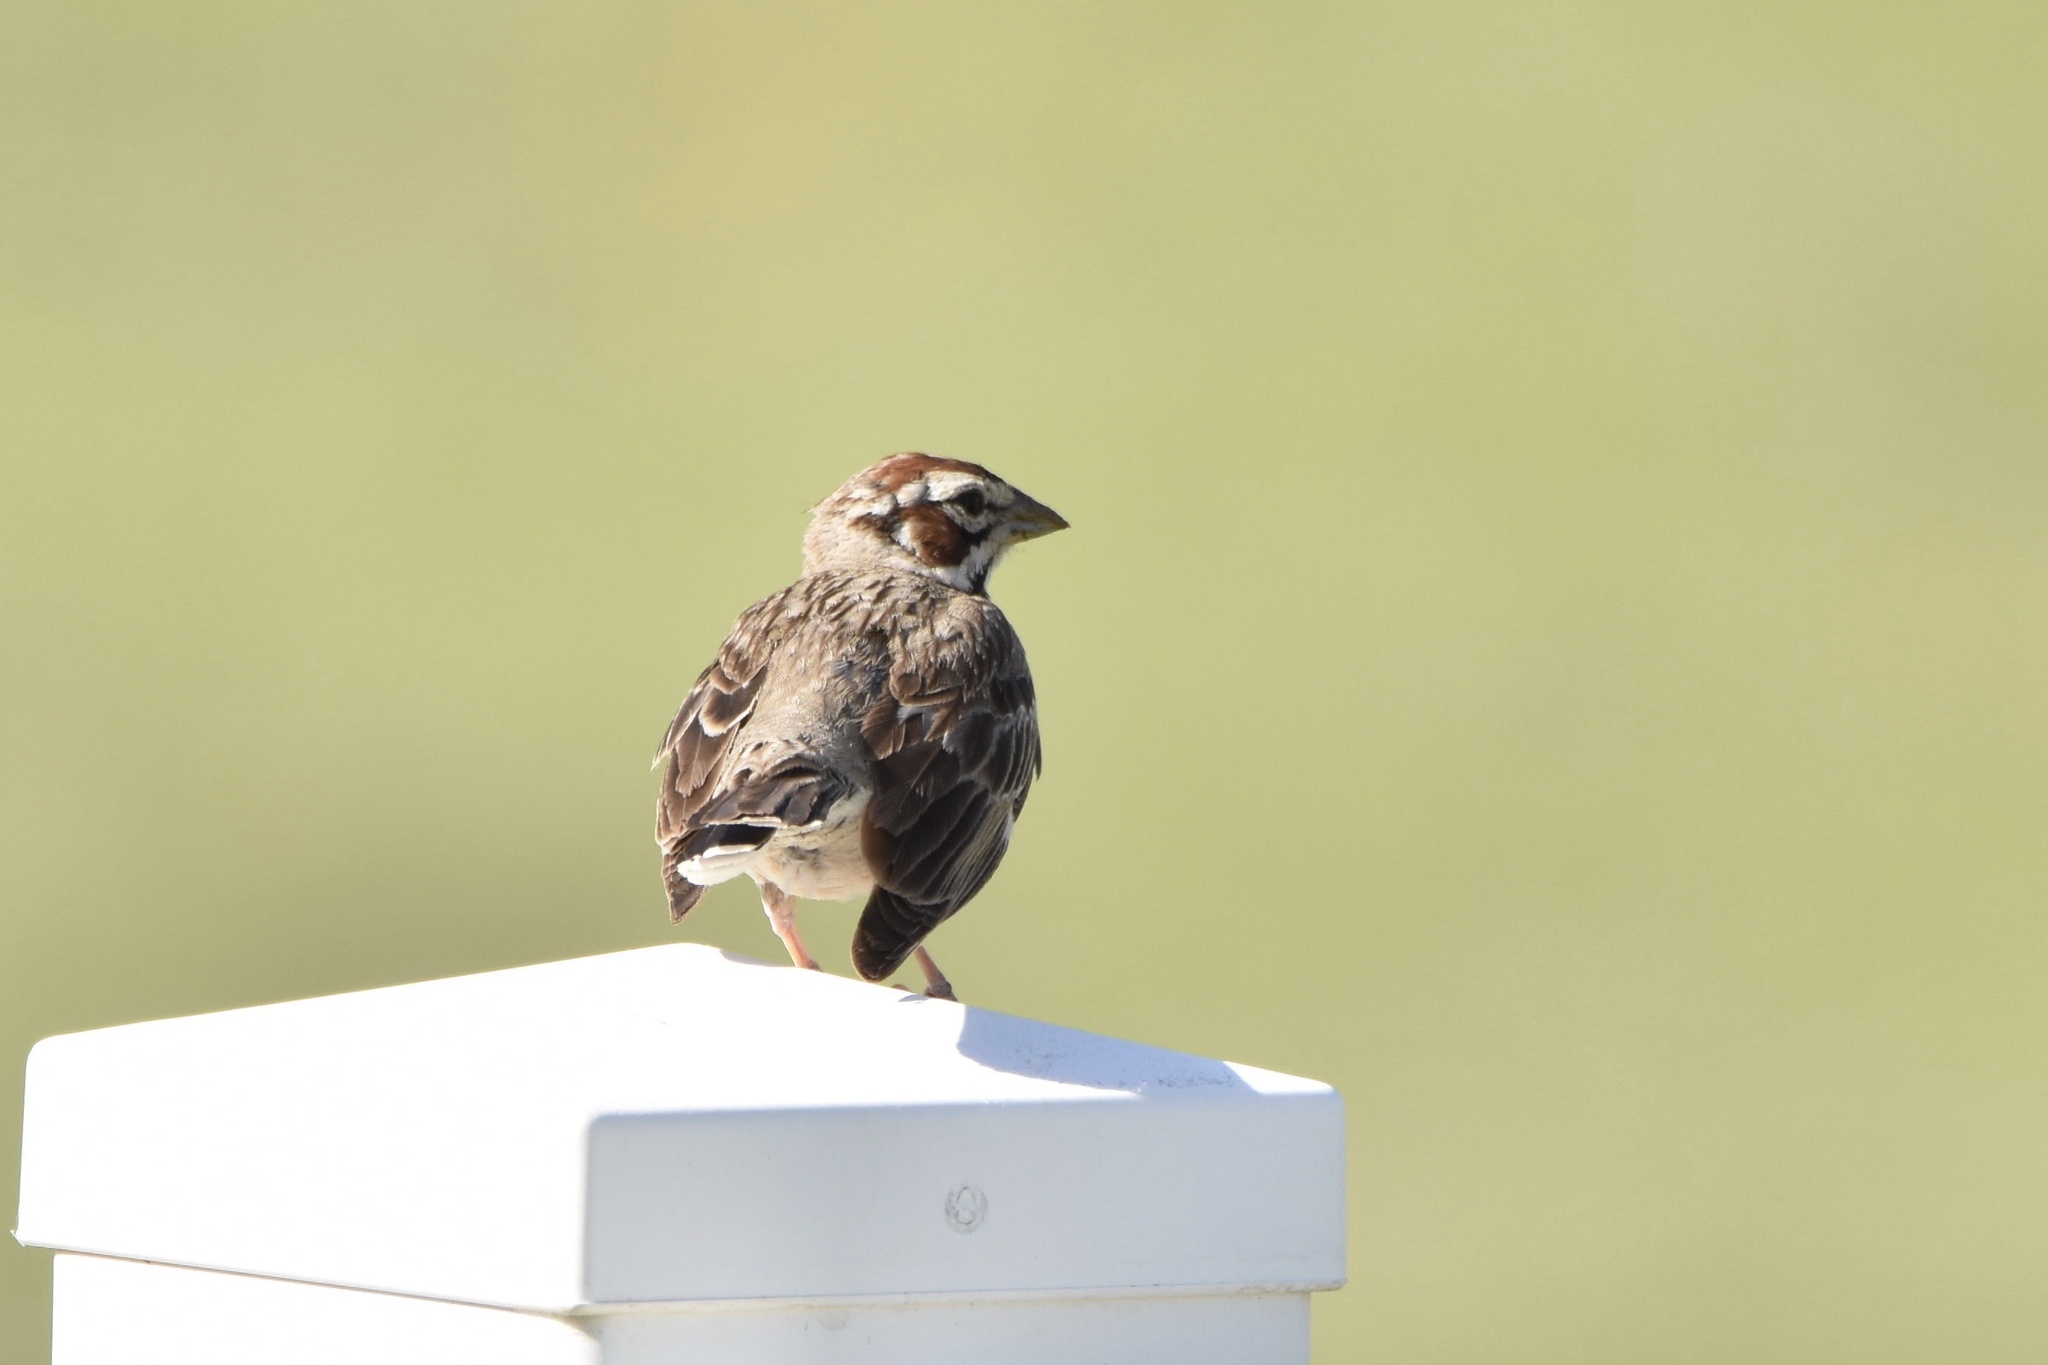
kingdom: Animalia
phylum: Chordata
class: Aves
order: Passeriformes
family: Passerellidae
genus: Chondestes
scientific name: Chondestes grammacus
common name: Lark sparrow
